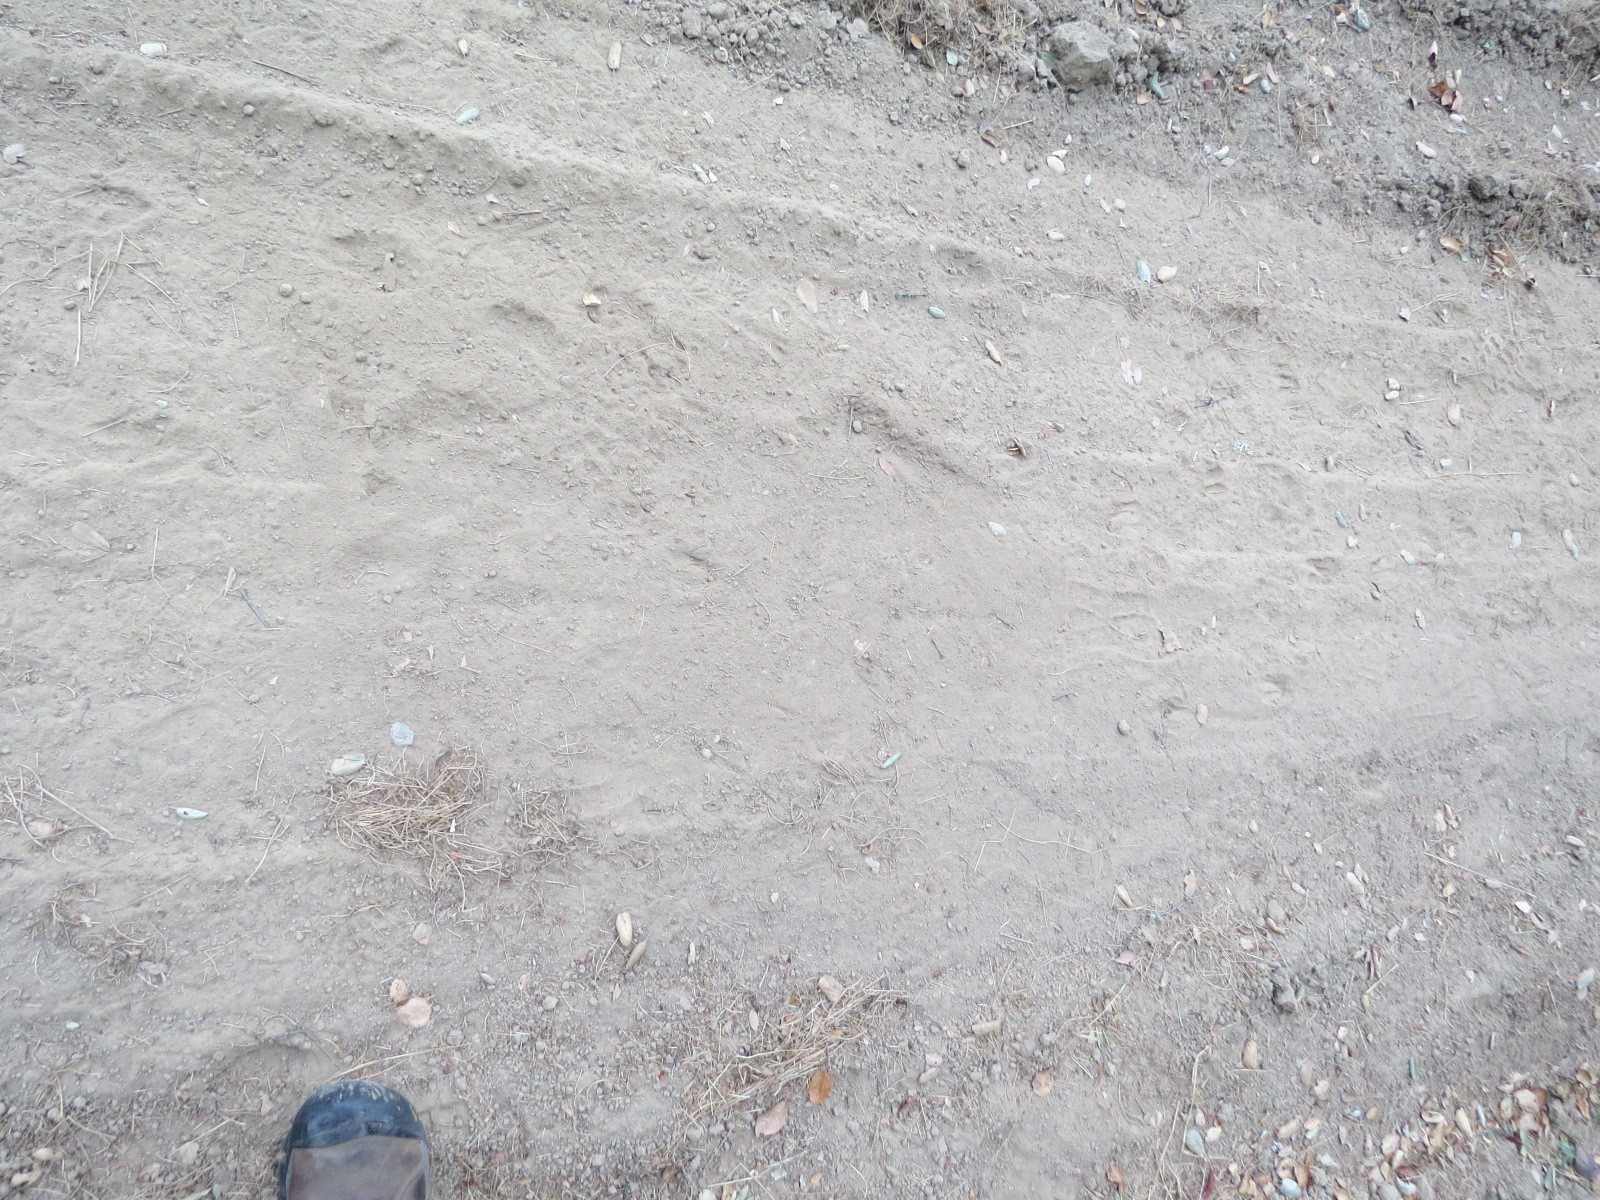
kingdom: Animalia
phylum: Chordata
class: Aves
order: Strigiformes
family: Strigidae
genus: Bubo
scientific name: Bubo virginianus
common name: Great horned owl
